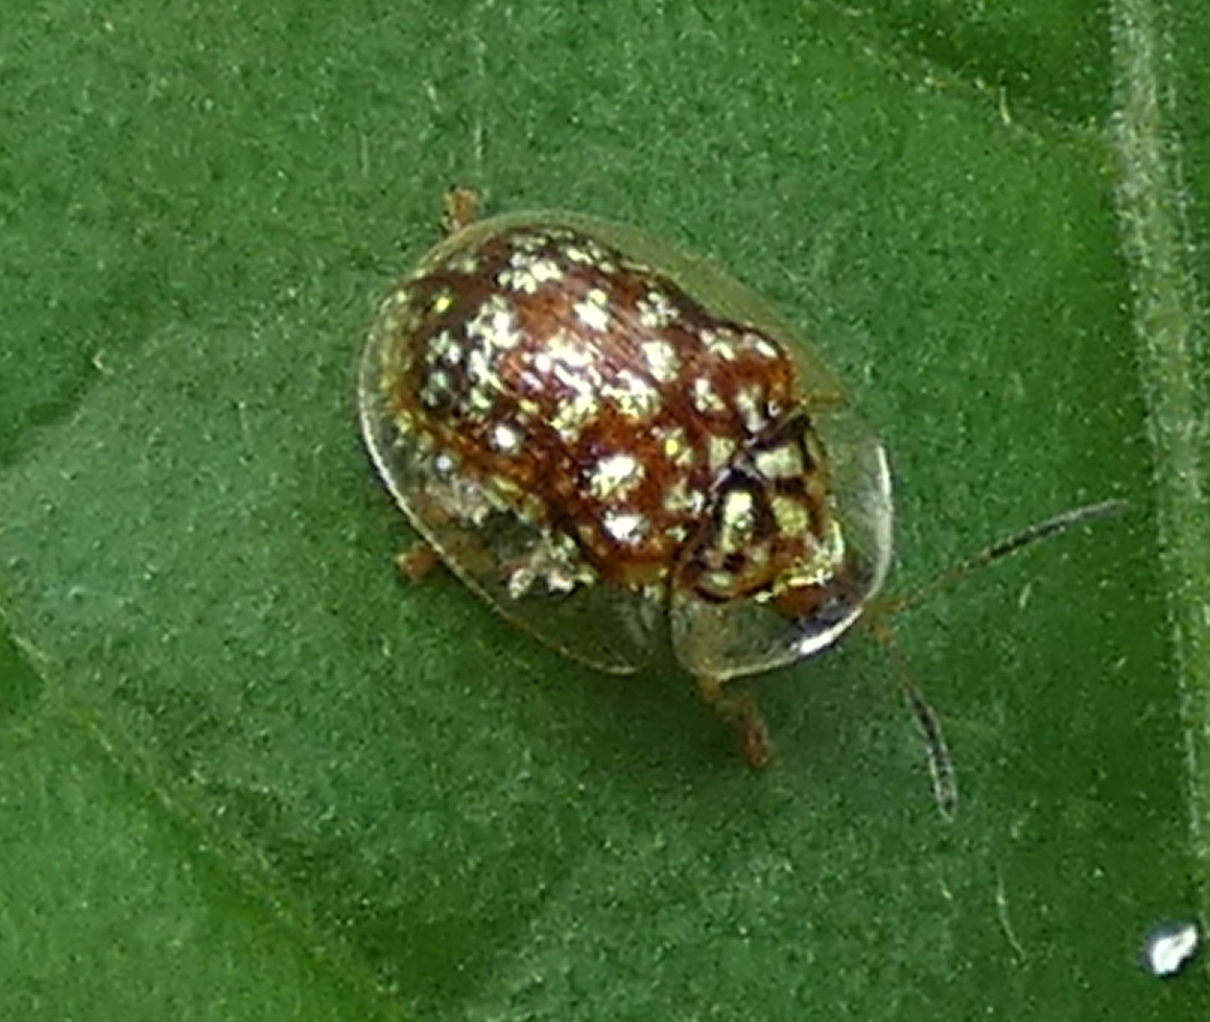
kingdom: Animalia
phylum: Arthropoda
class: Insecta
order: Coleoptera
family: Chrysomelidae
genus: Cteisella
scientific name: Cteisella guttigera
